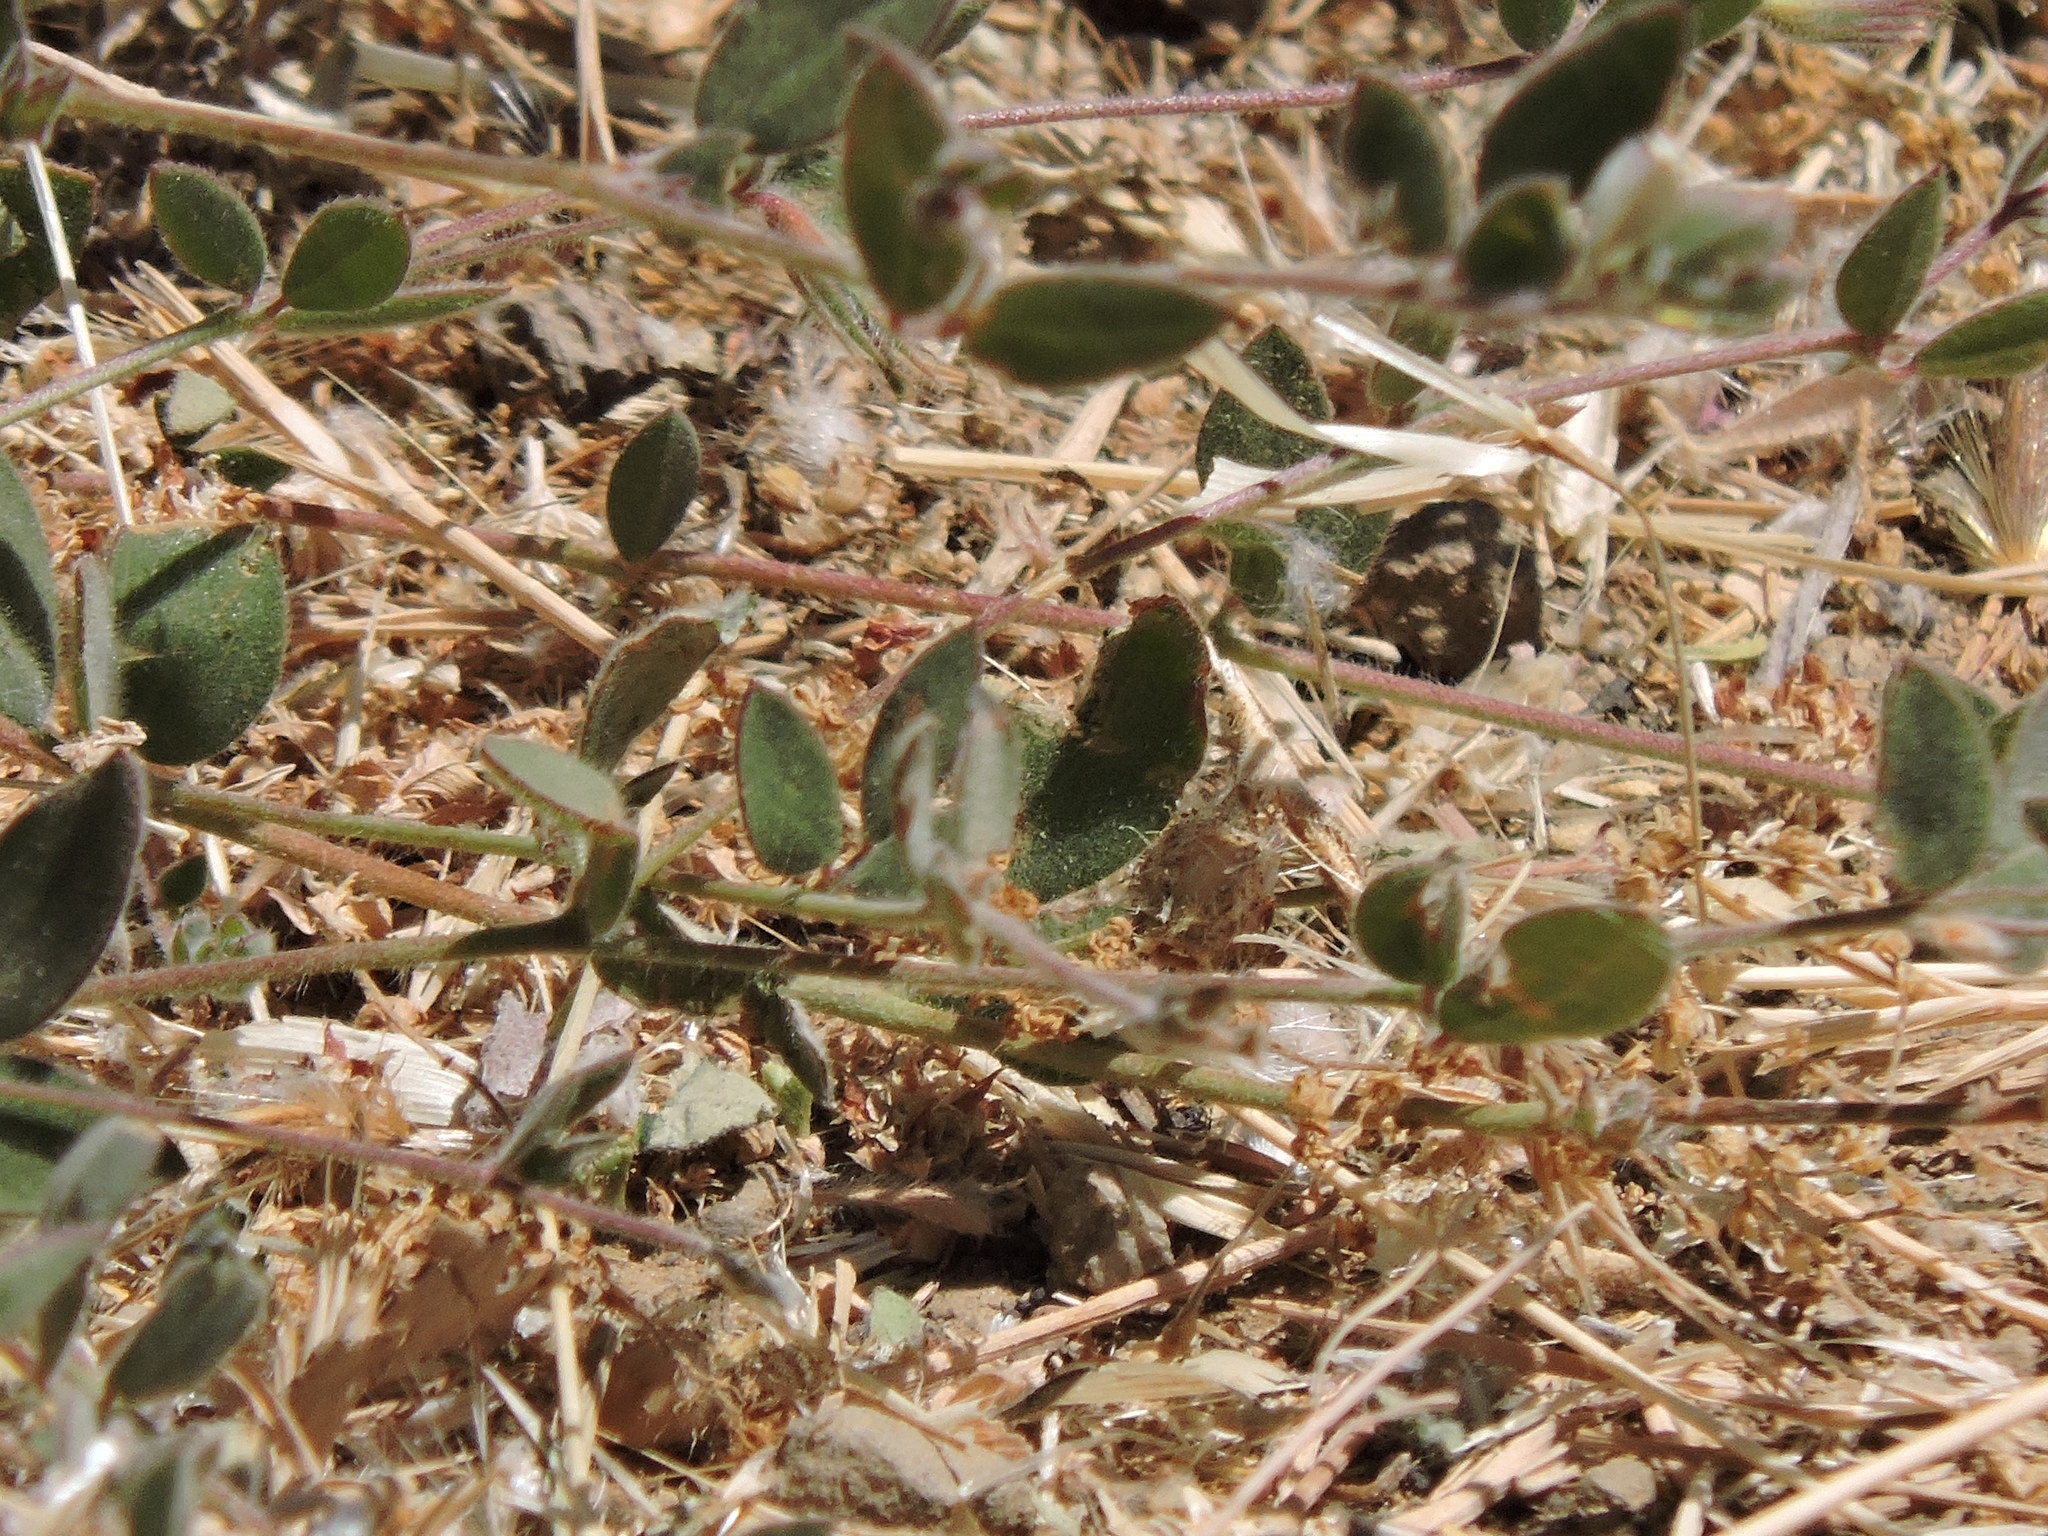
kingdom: Plantae
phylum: Tracheophyta
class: Magnoliopsida
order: Fabales
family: Fabaceae
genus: Acmispon
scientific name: Acmispon americanus
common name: American bird's-foot trefoil
